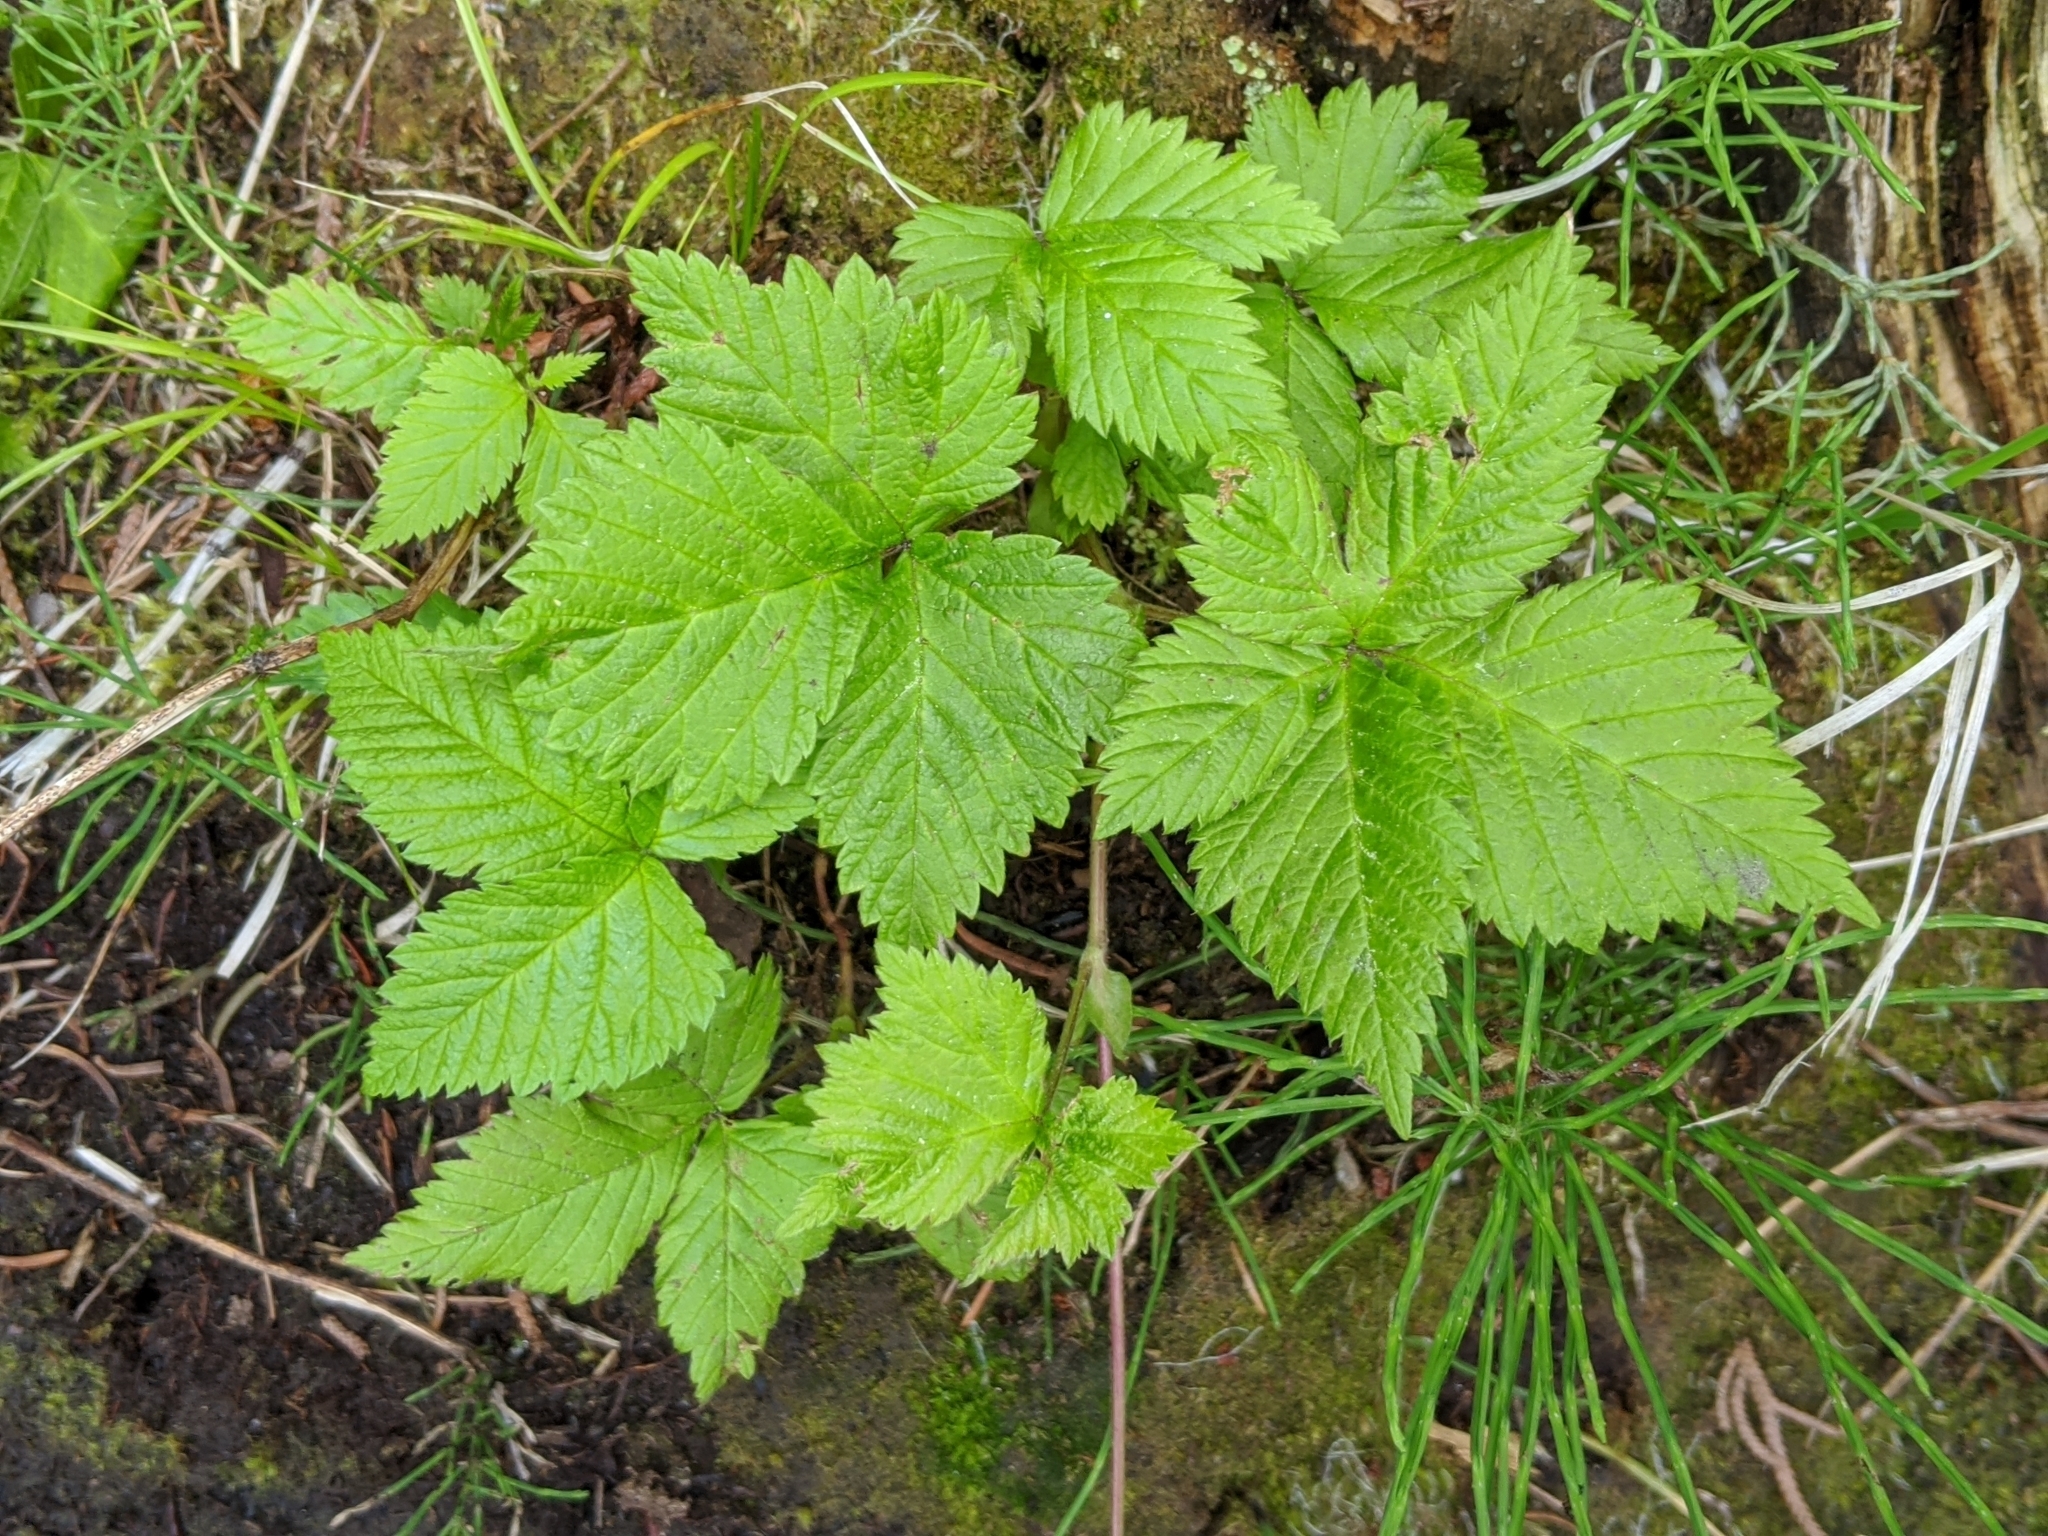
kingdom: Plantae
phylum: Tracheophyta
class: Magnoliopsida
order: Rosales
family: Rosaceae
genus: Rubus
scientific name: Rubus pubescens
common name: Dwarf raspberry
